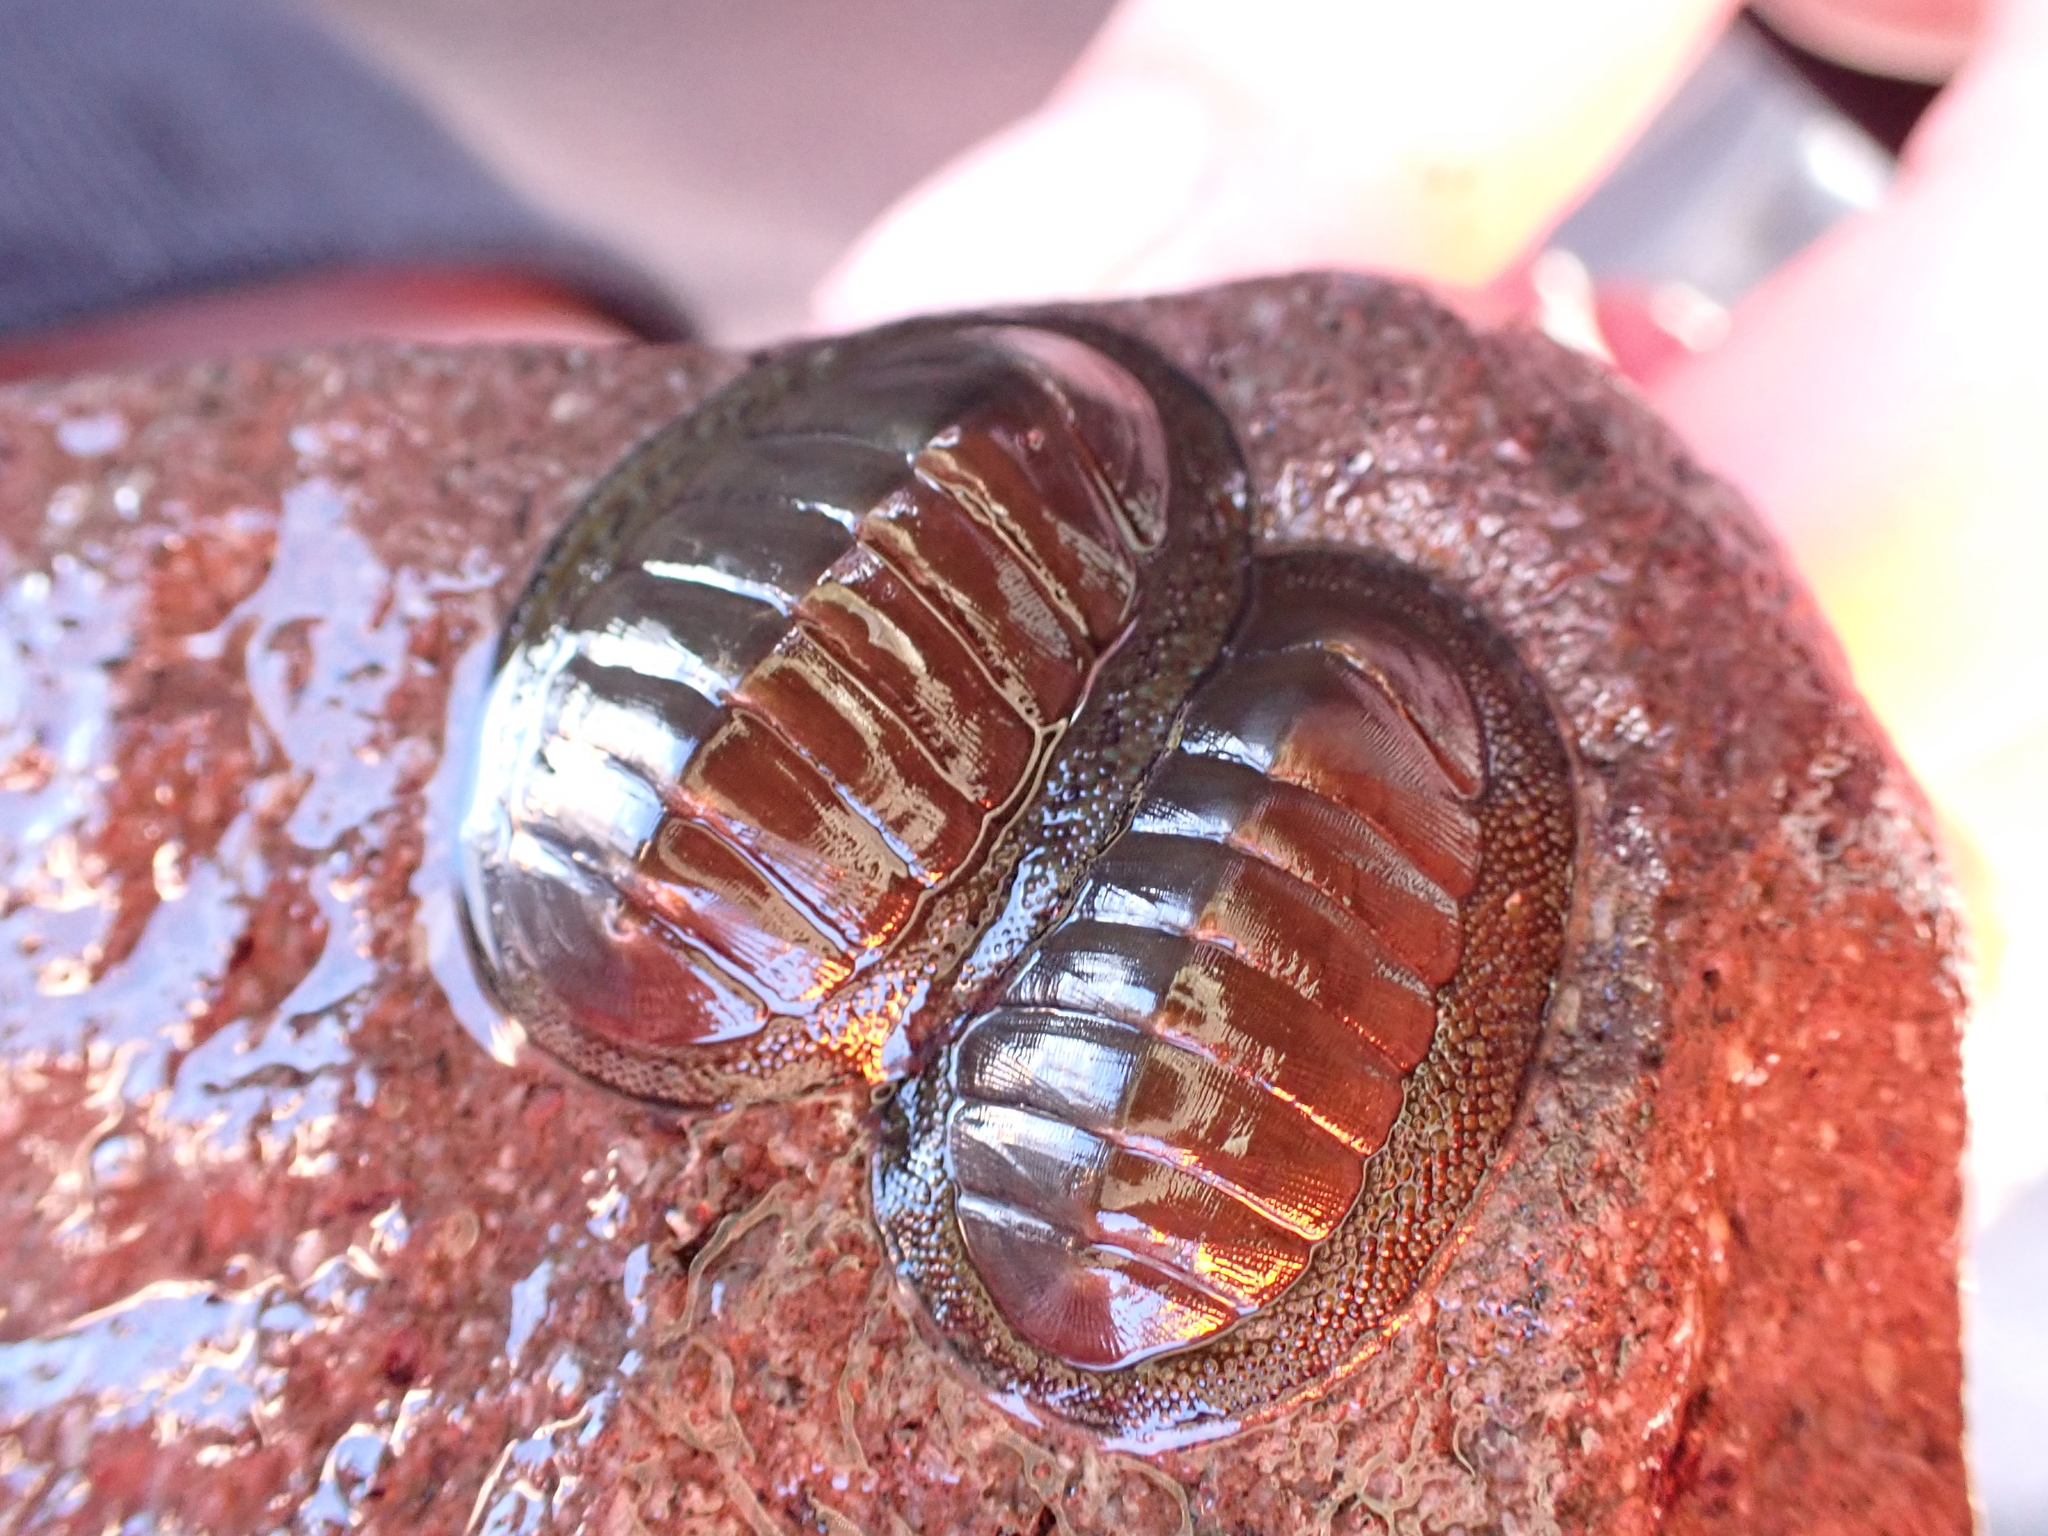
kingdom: Animalia
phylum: Mollusca
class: Polyplacophora
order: Chitonida
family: Chitonidae
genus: Chiton
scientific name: Chiton glaucus
